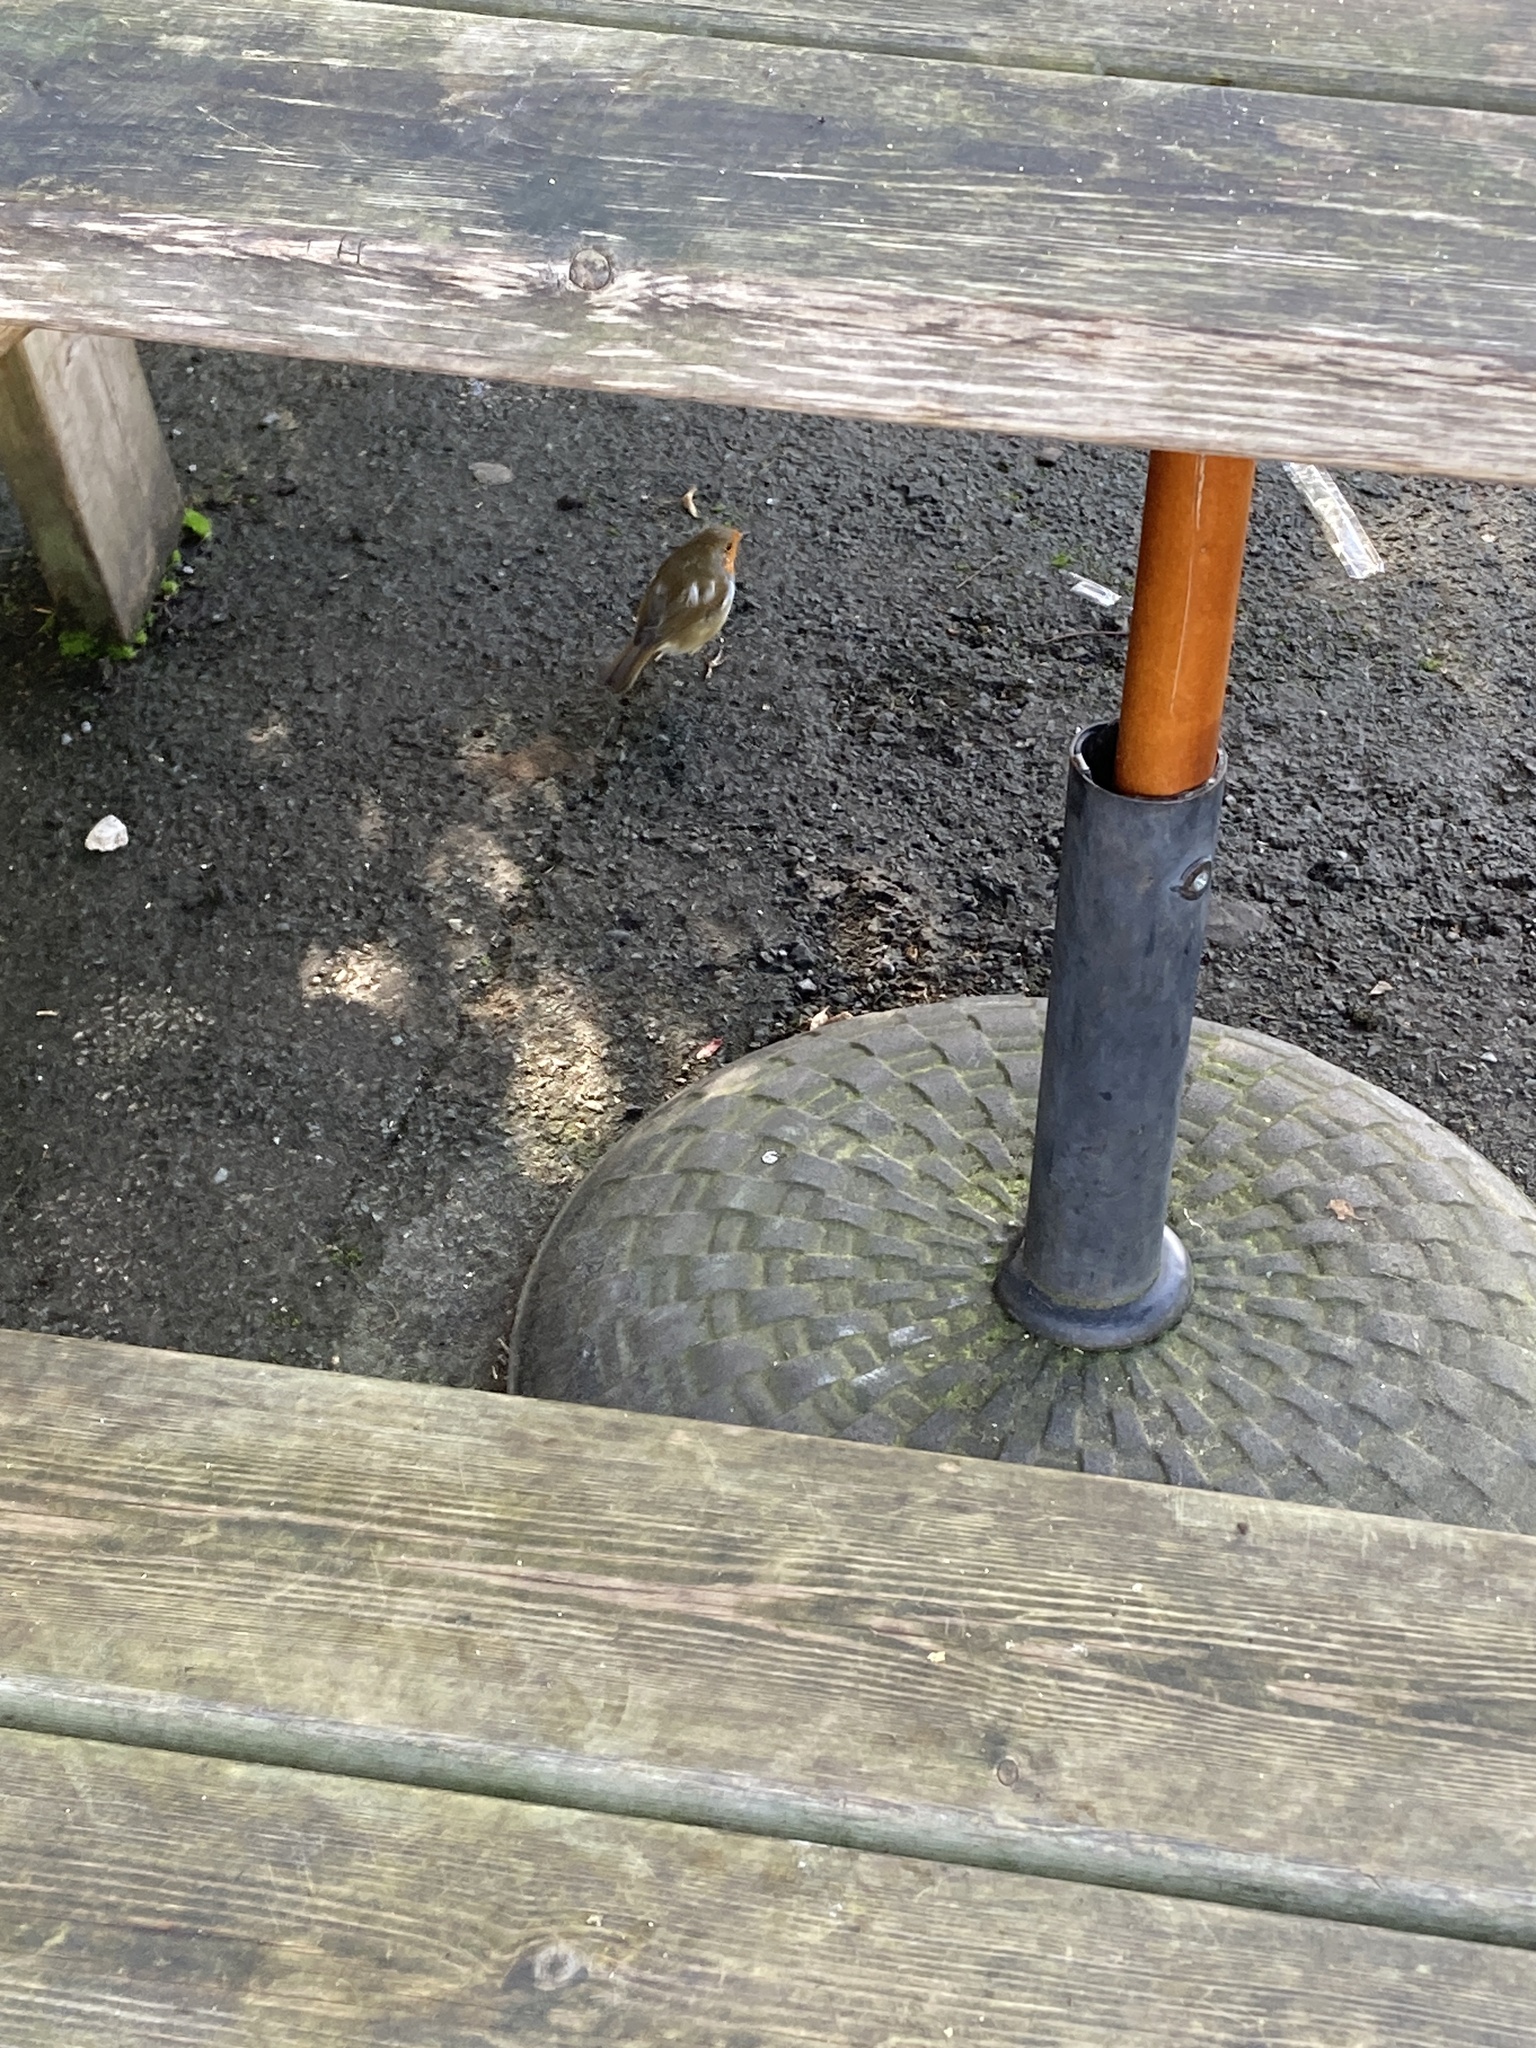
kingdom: Animalia
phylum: Chordata
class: Aves
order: Passeriformes
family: Muscicapidae
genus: Erithacus
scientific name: Erithacus rubecula
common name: European robin
